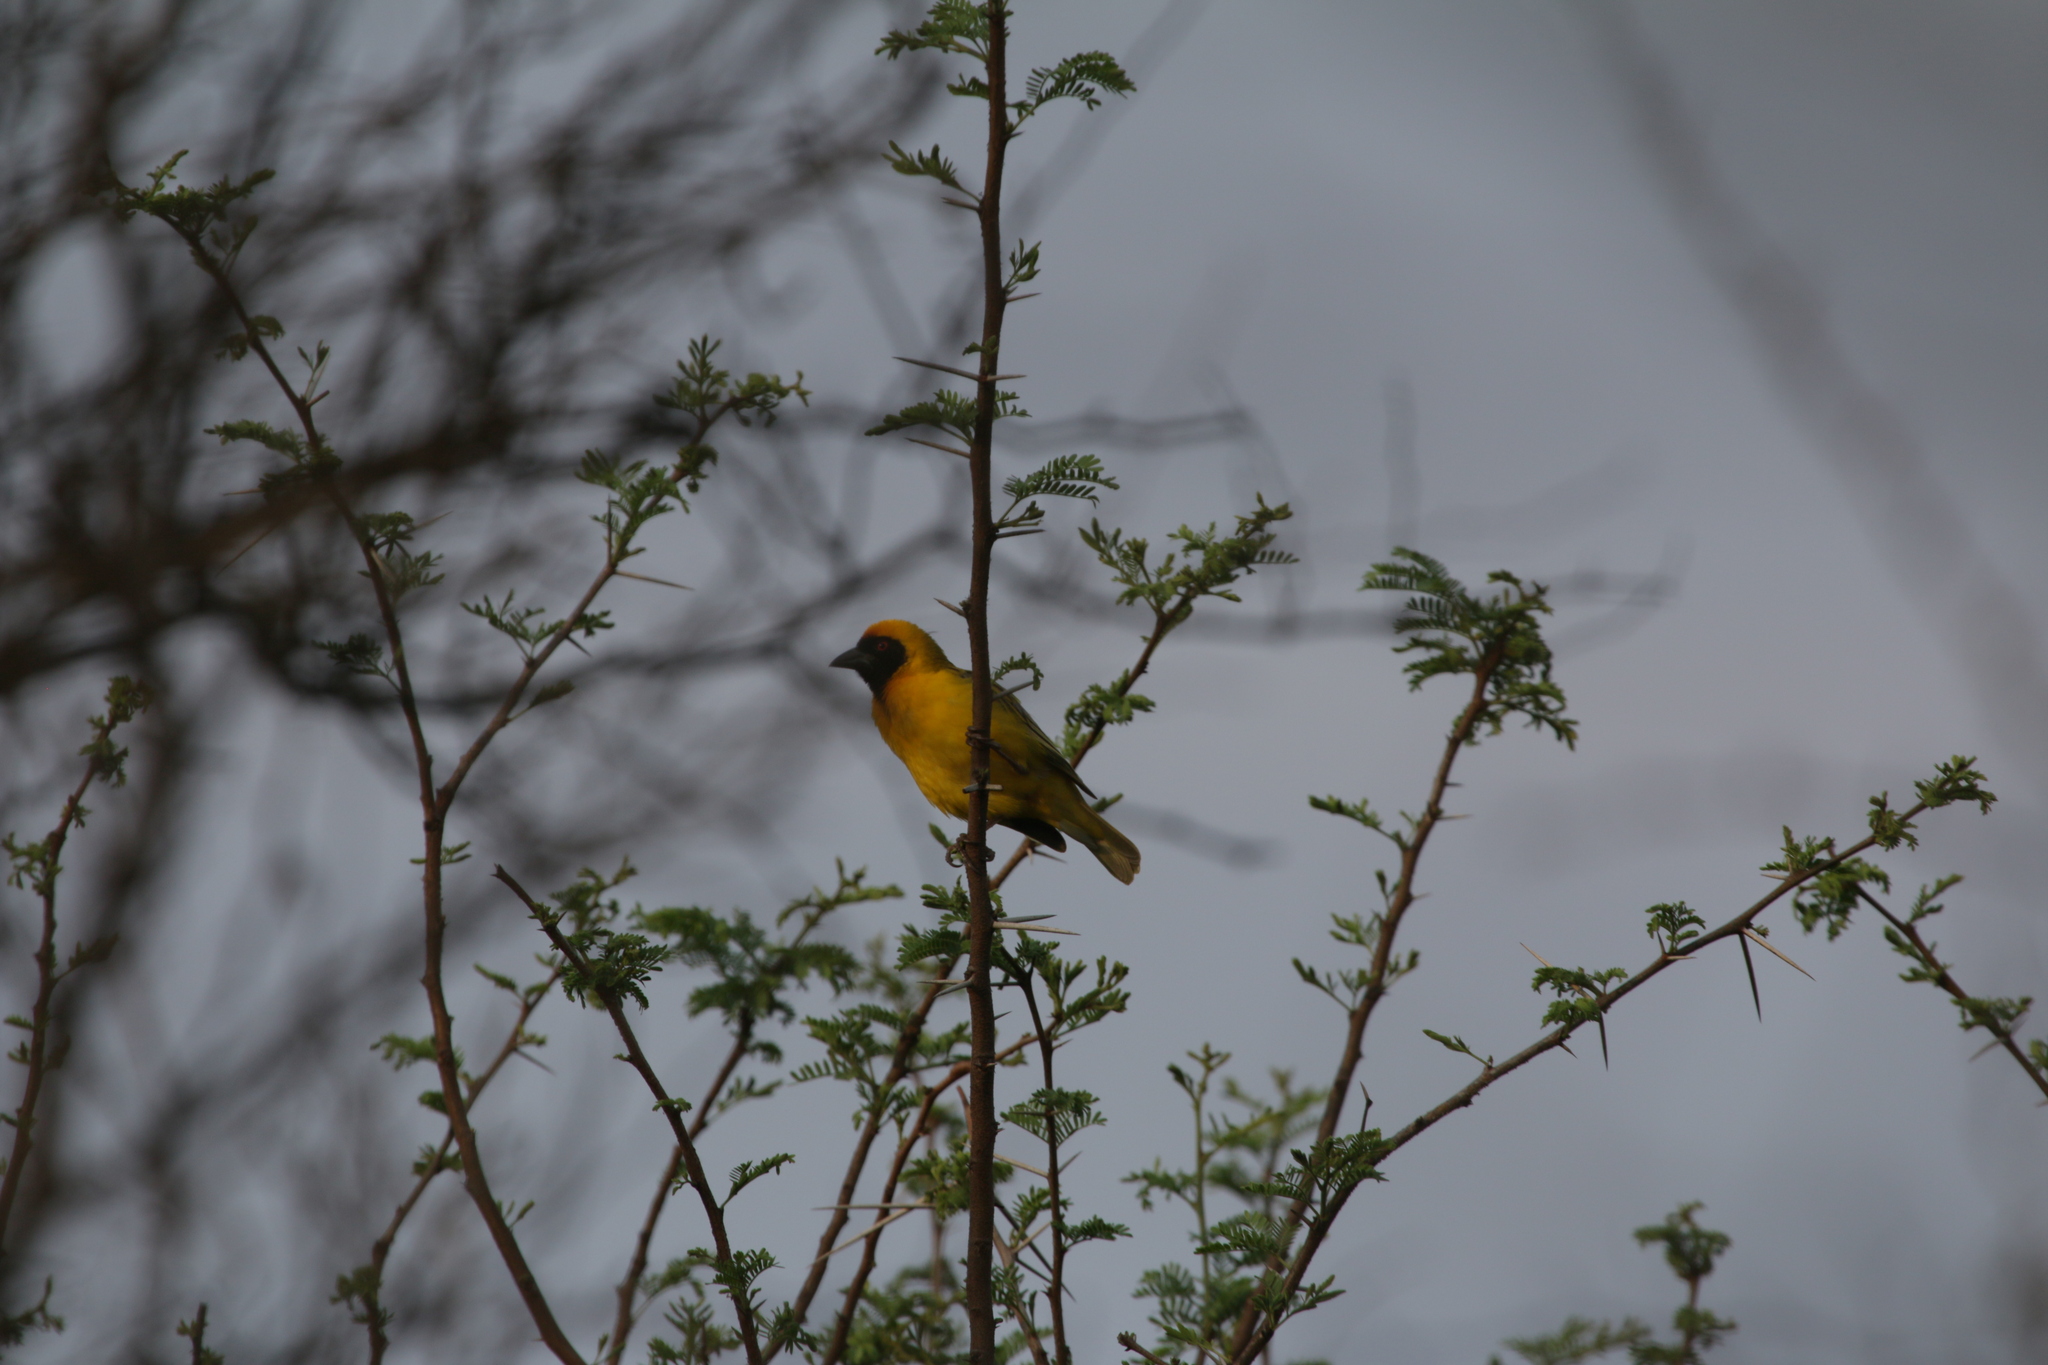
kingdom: Animalia
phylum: Chordata
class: Aves
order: Passeriformes
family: Ploceidae
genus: Ploceus
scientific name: Ploceus velatus
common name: Southern masked weaver
